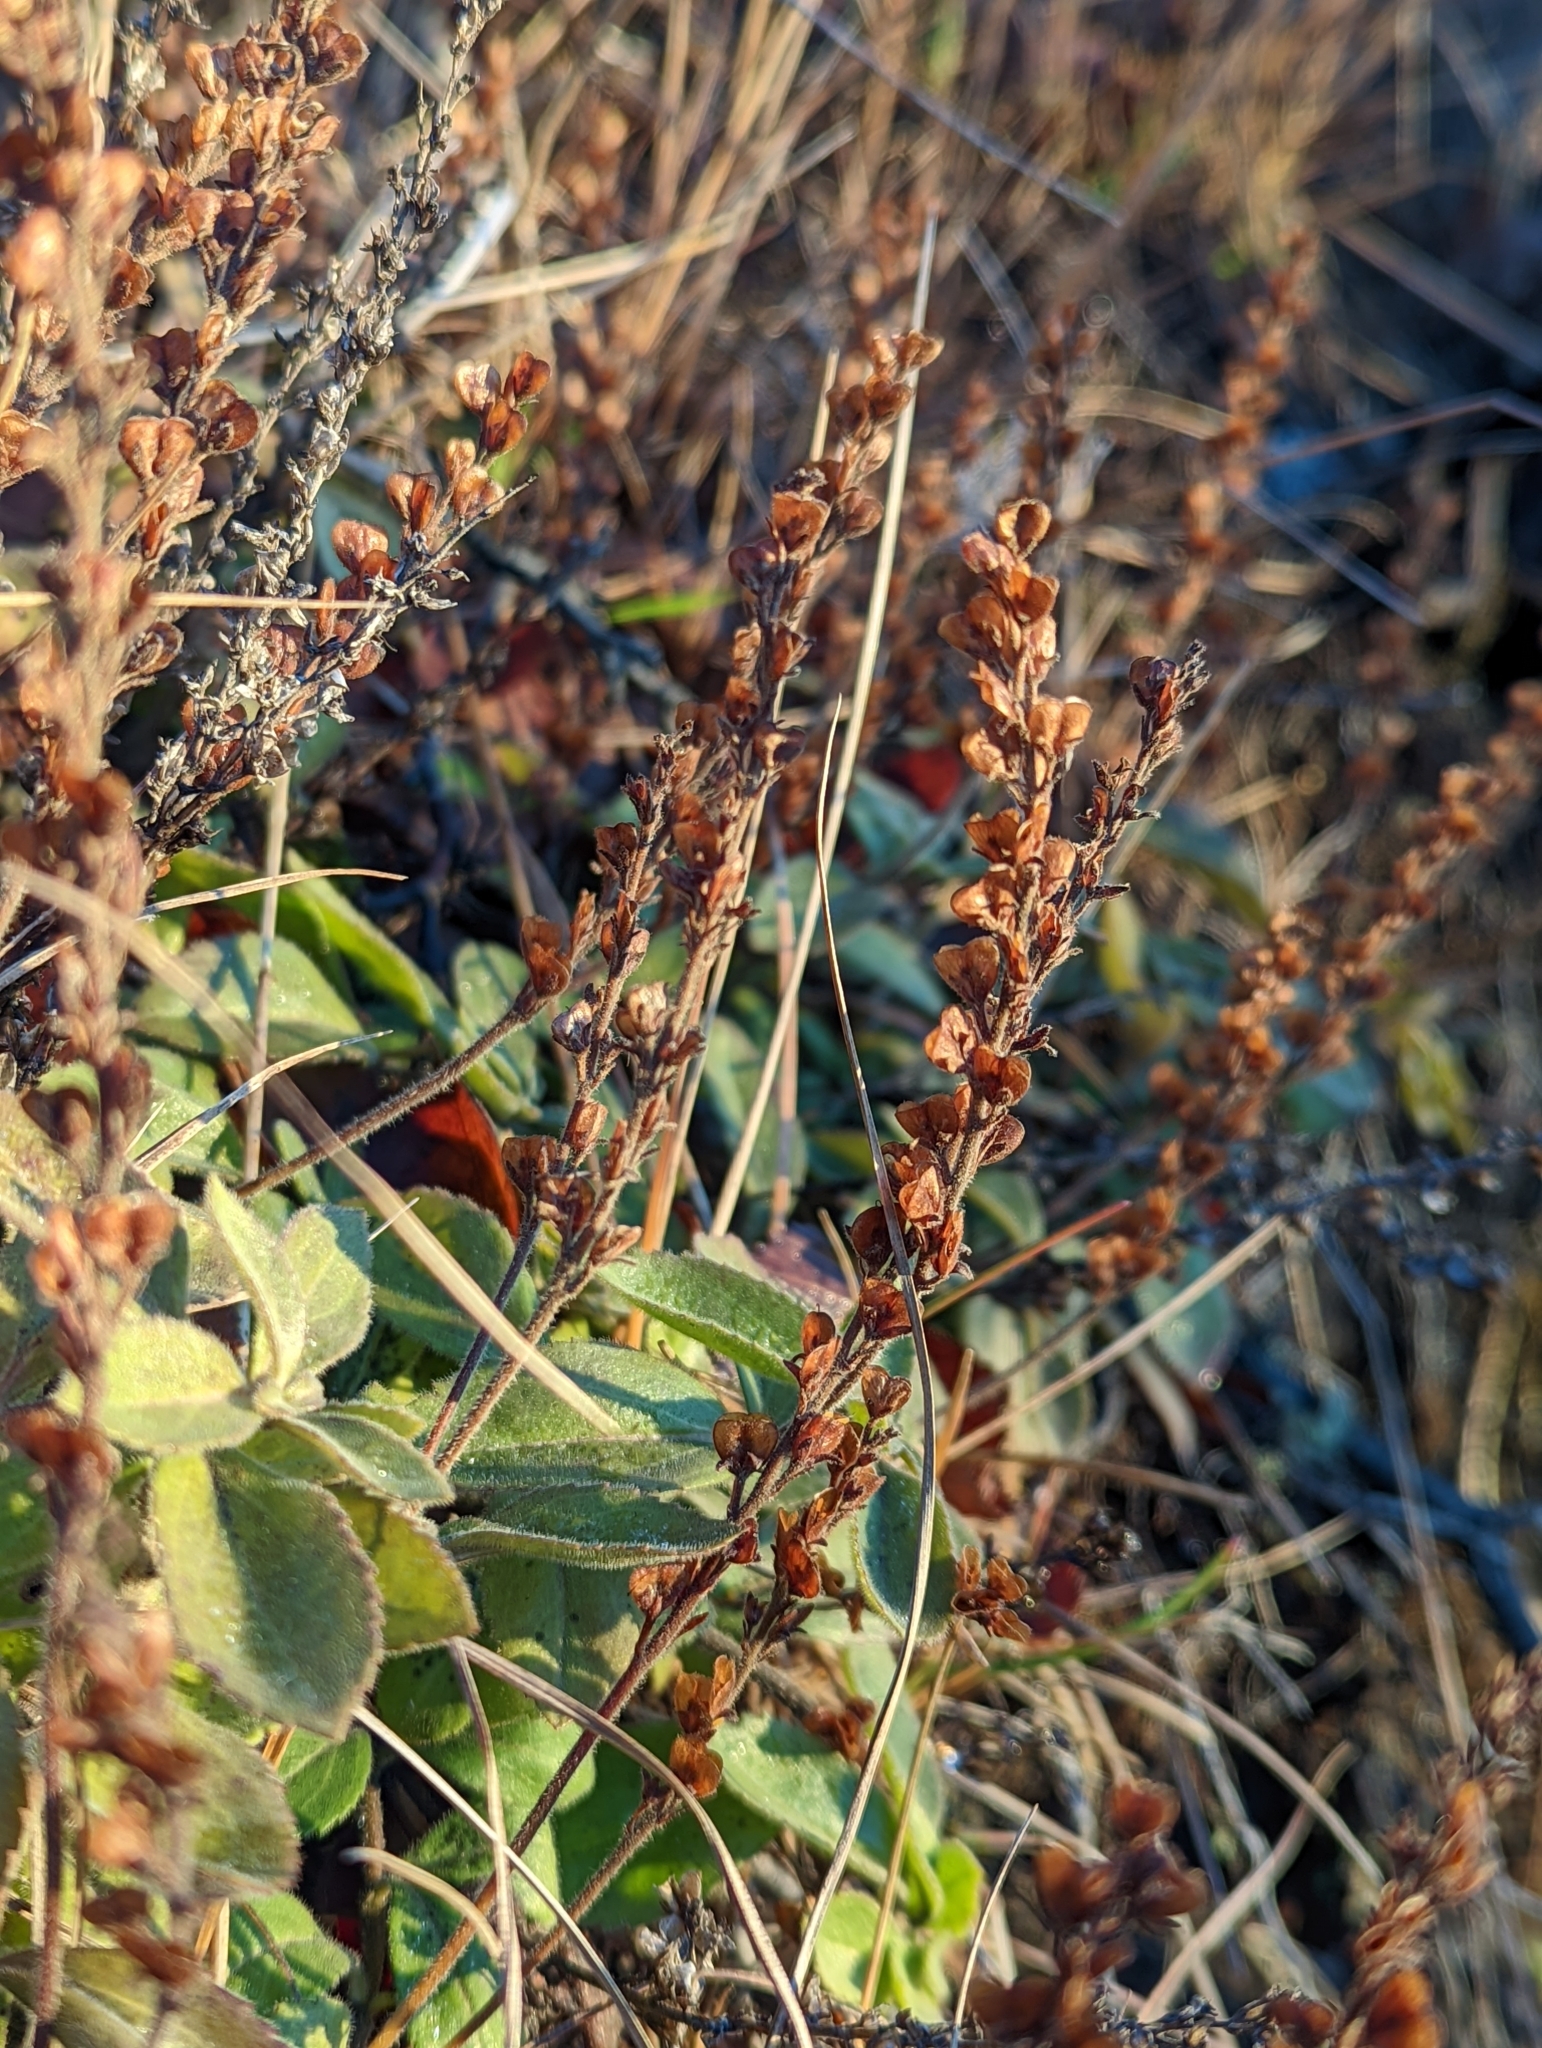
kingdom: Plantae
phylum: Tracheophyta
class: Magnoliopsida
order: Lamiales
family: Plantaginaceae
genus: Veronica
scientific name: Veronica officinalis
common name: Common speedwell
